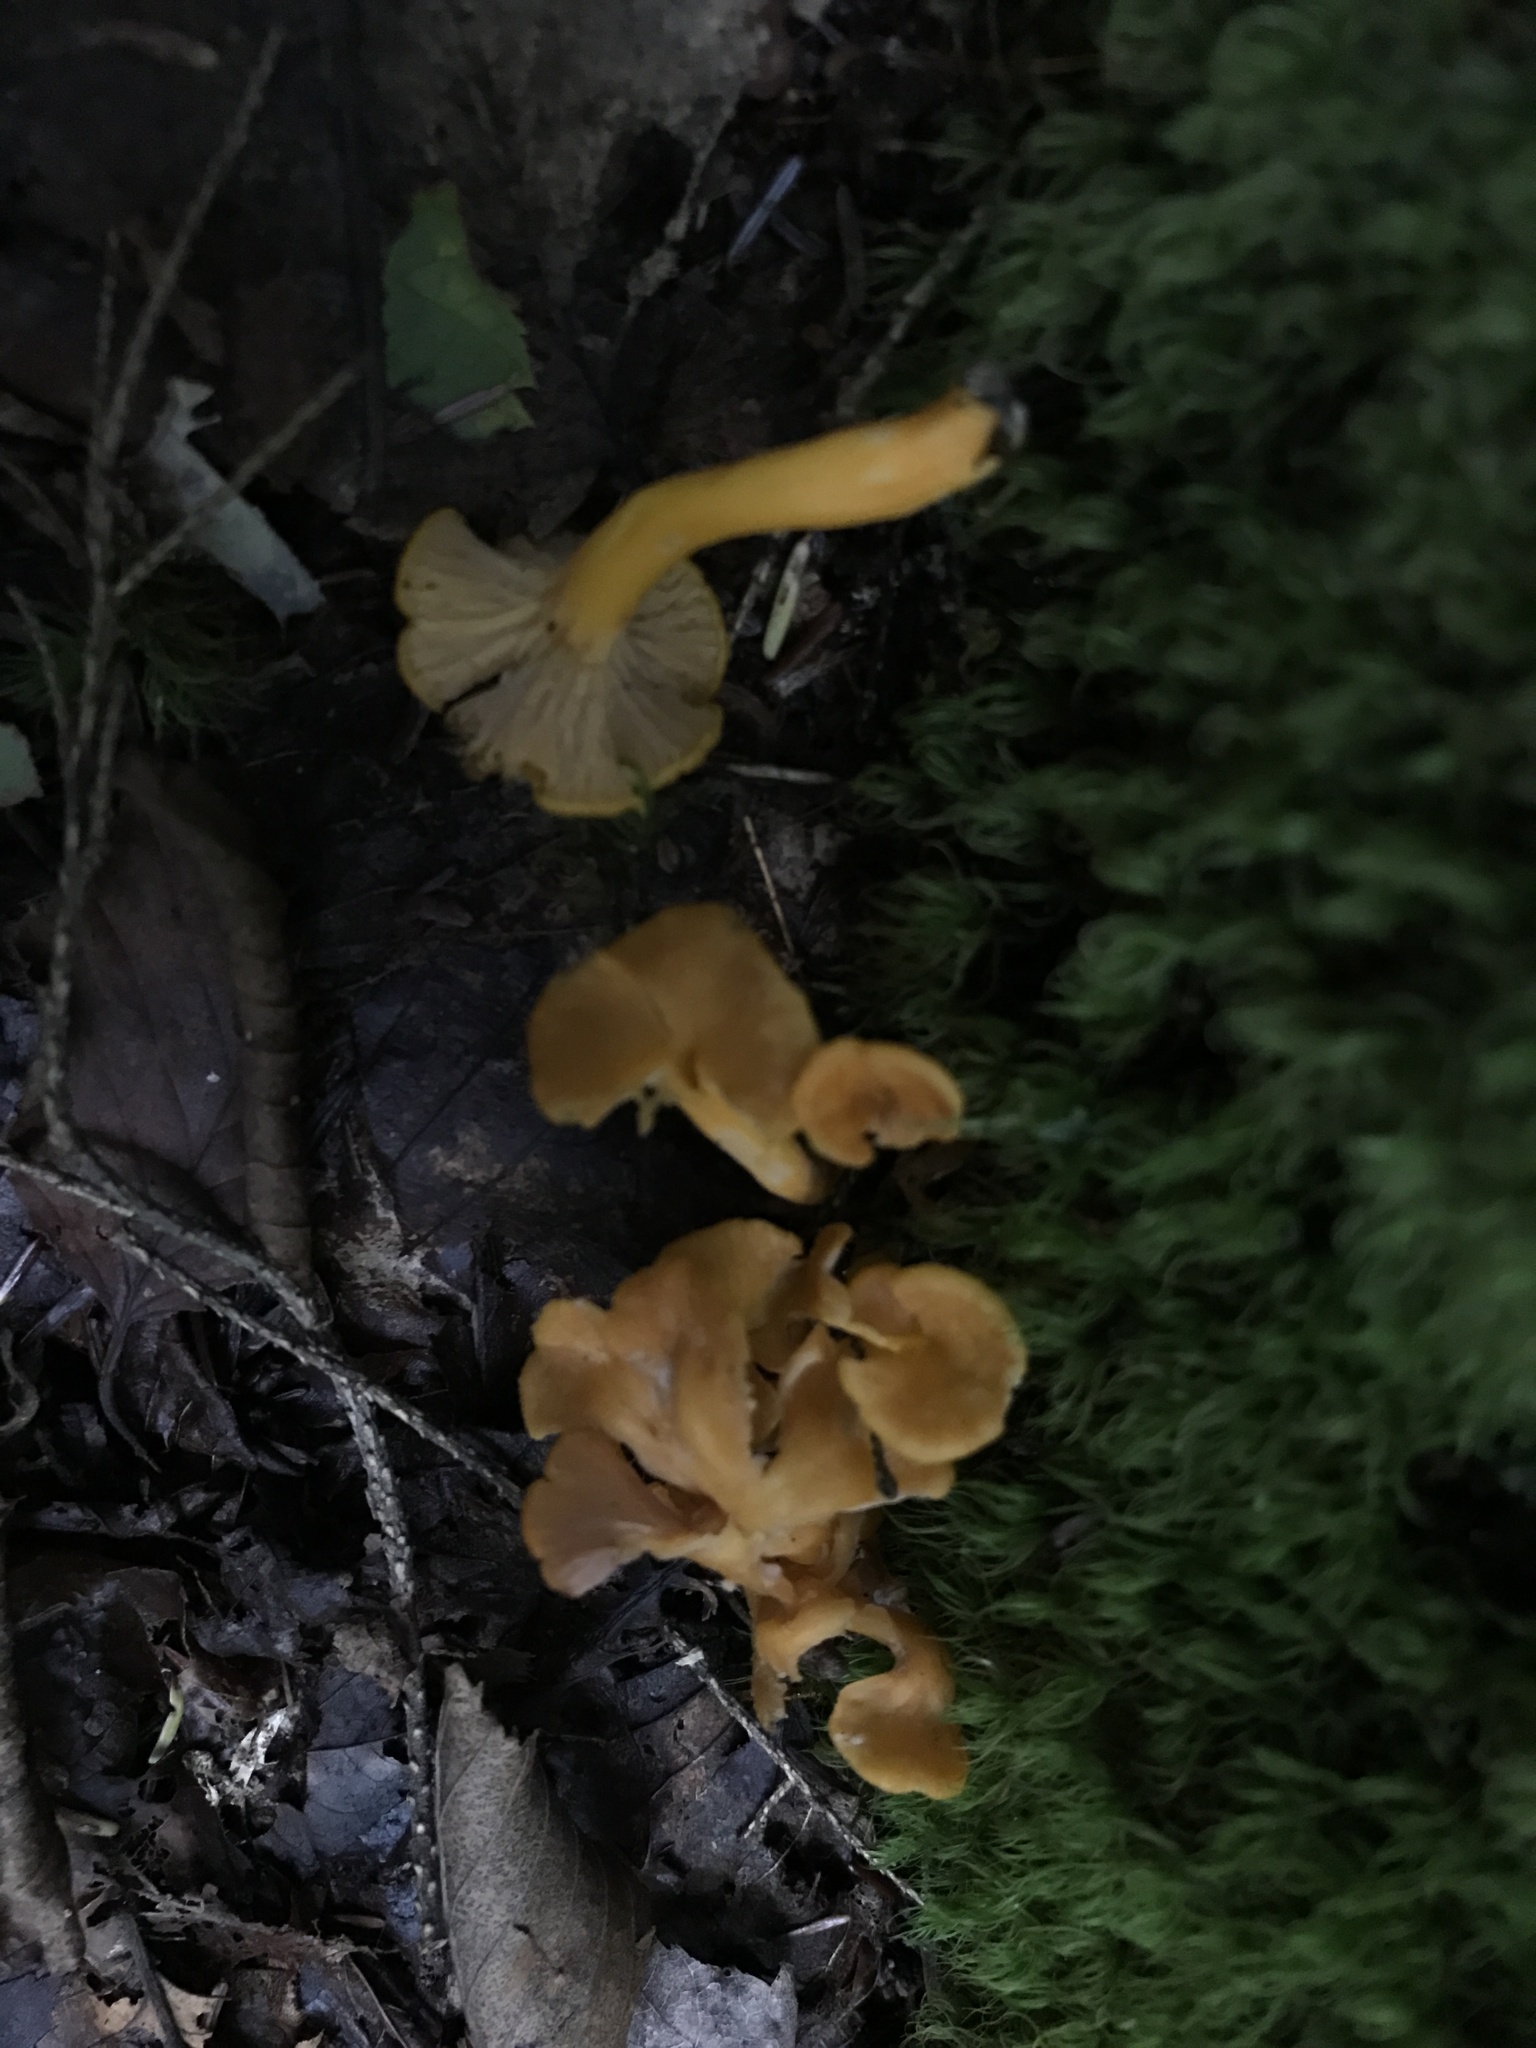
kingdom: Fungi
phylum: Basidiomycota
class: Agaricomycetes
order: Cantharellales
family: Hydnaceae
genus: Craterellus
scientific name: Craterellus ignicolor
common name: Flame chanterelle
